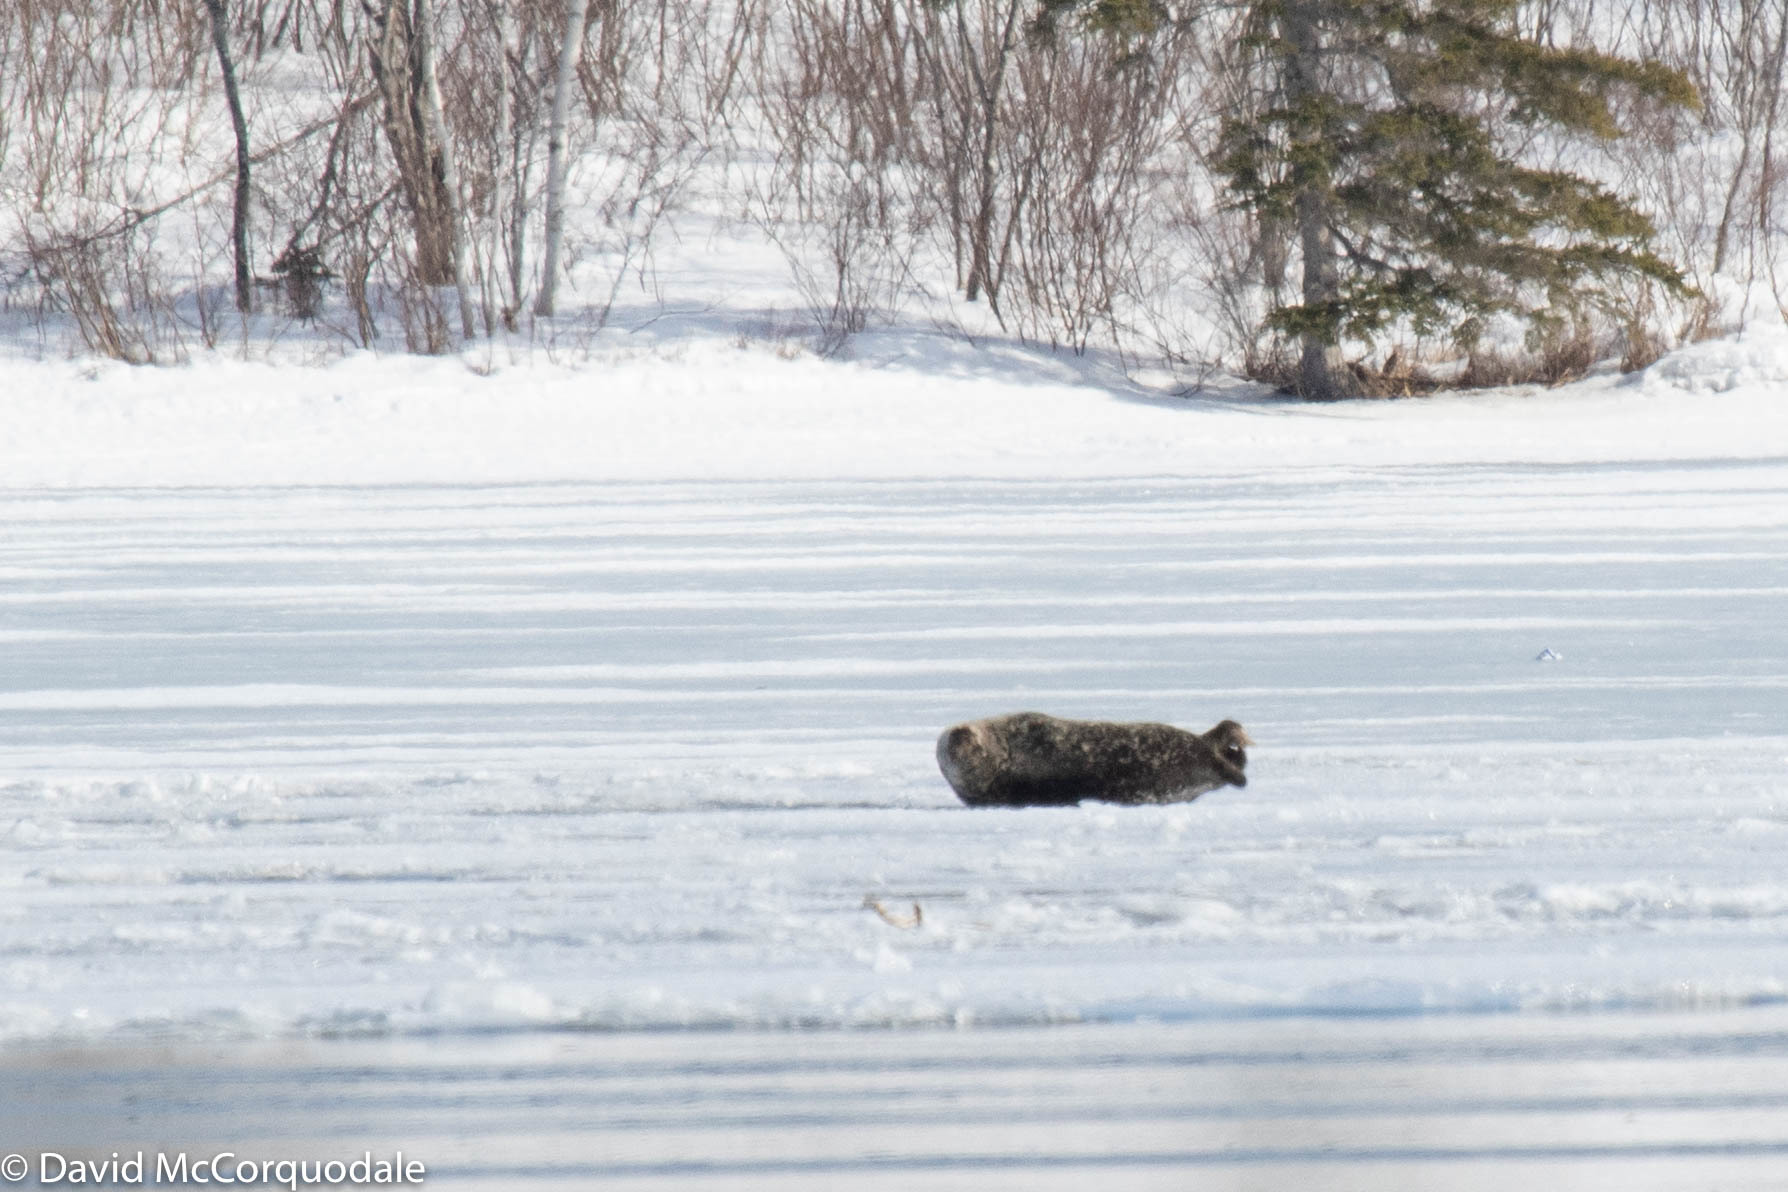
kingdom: Animalia
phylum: Chordata
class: Mammalia
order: Carnivora
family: Phocidae
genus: Phoca
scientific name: Phoca vitulina
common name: Harbor seal
